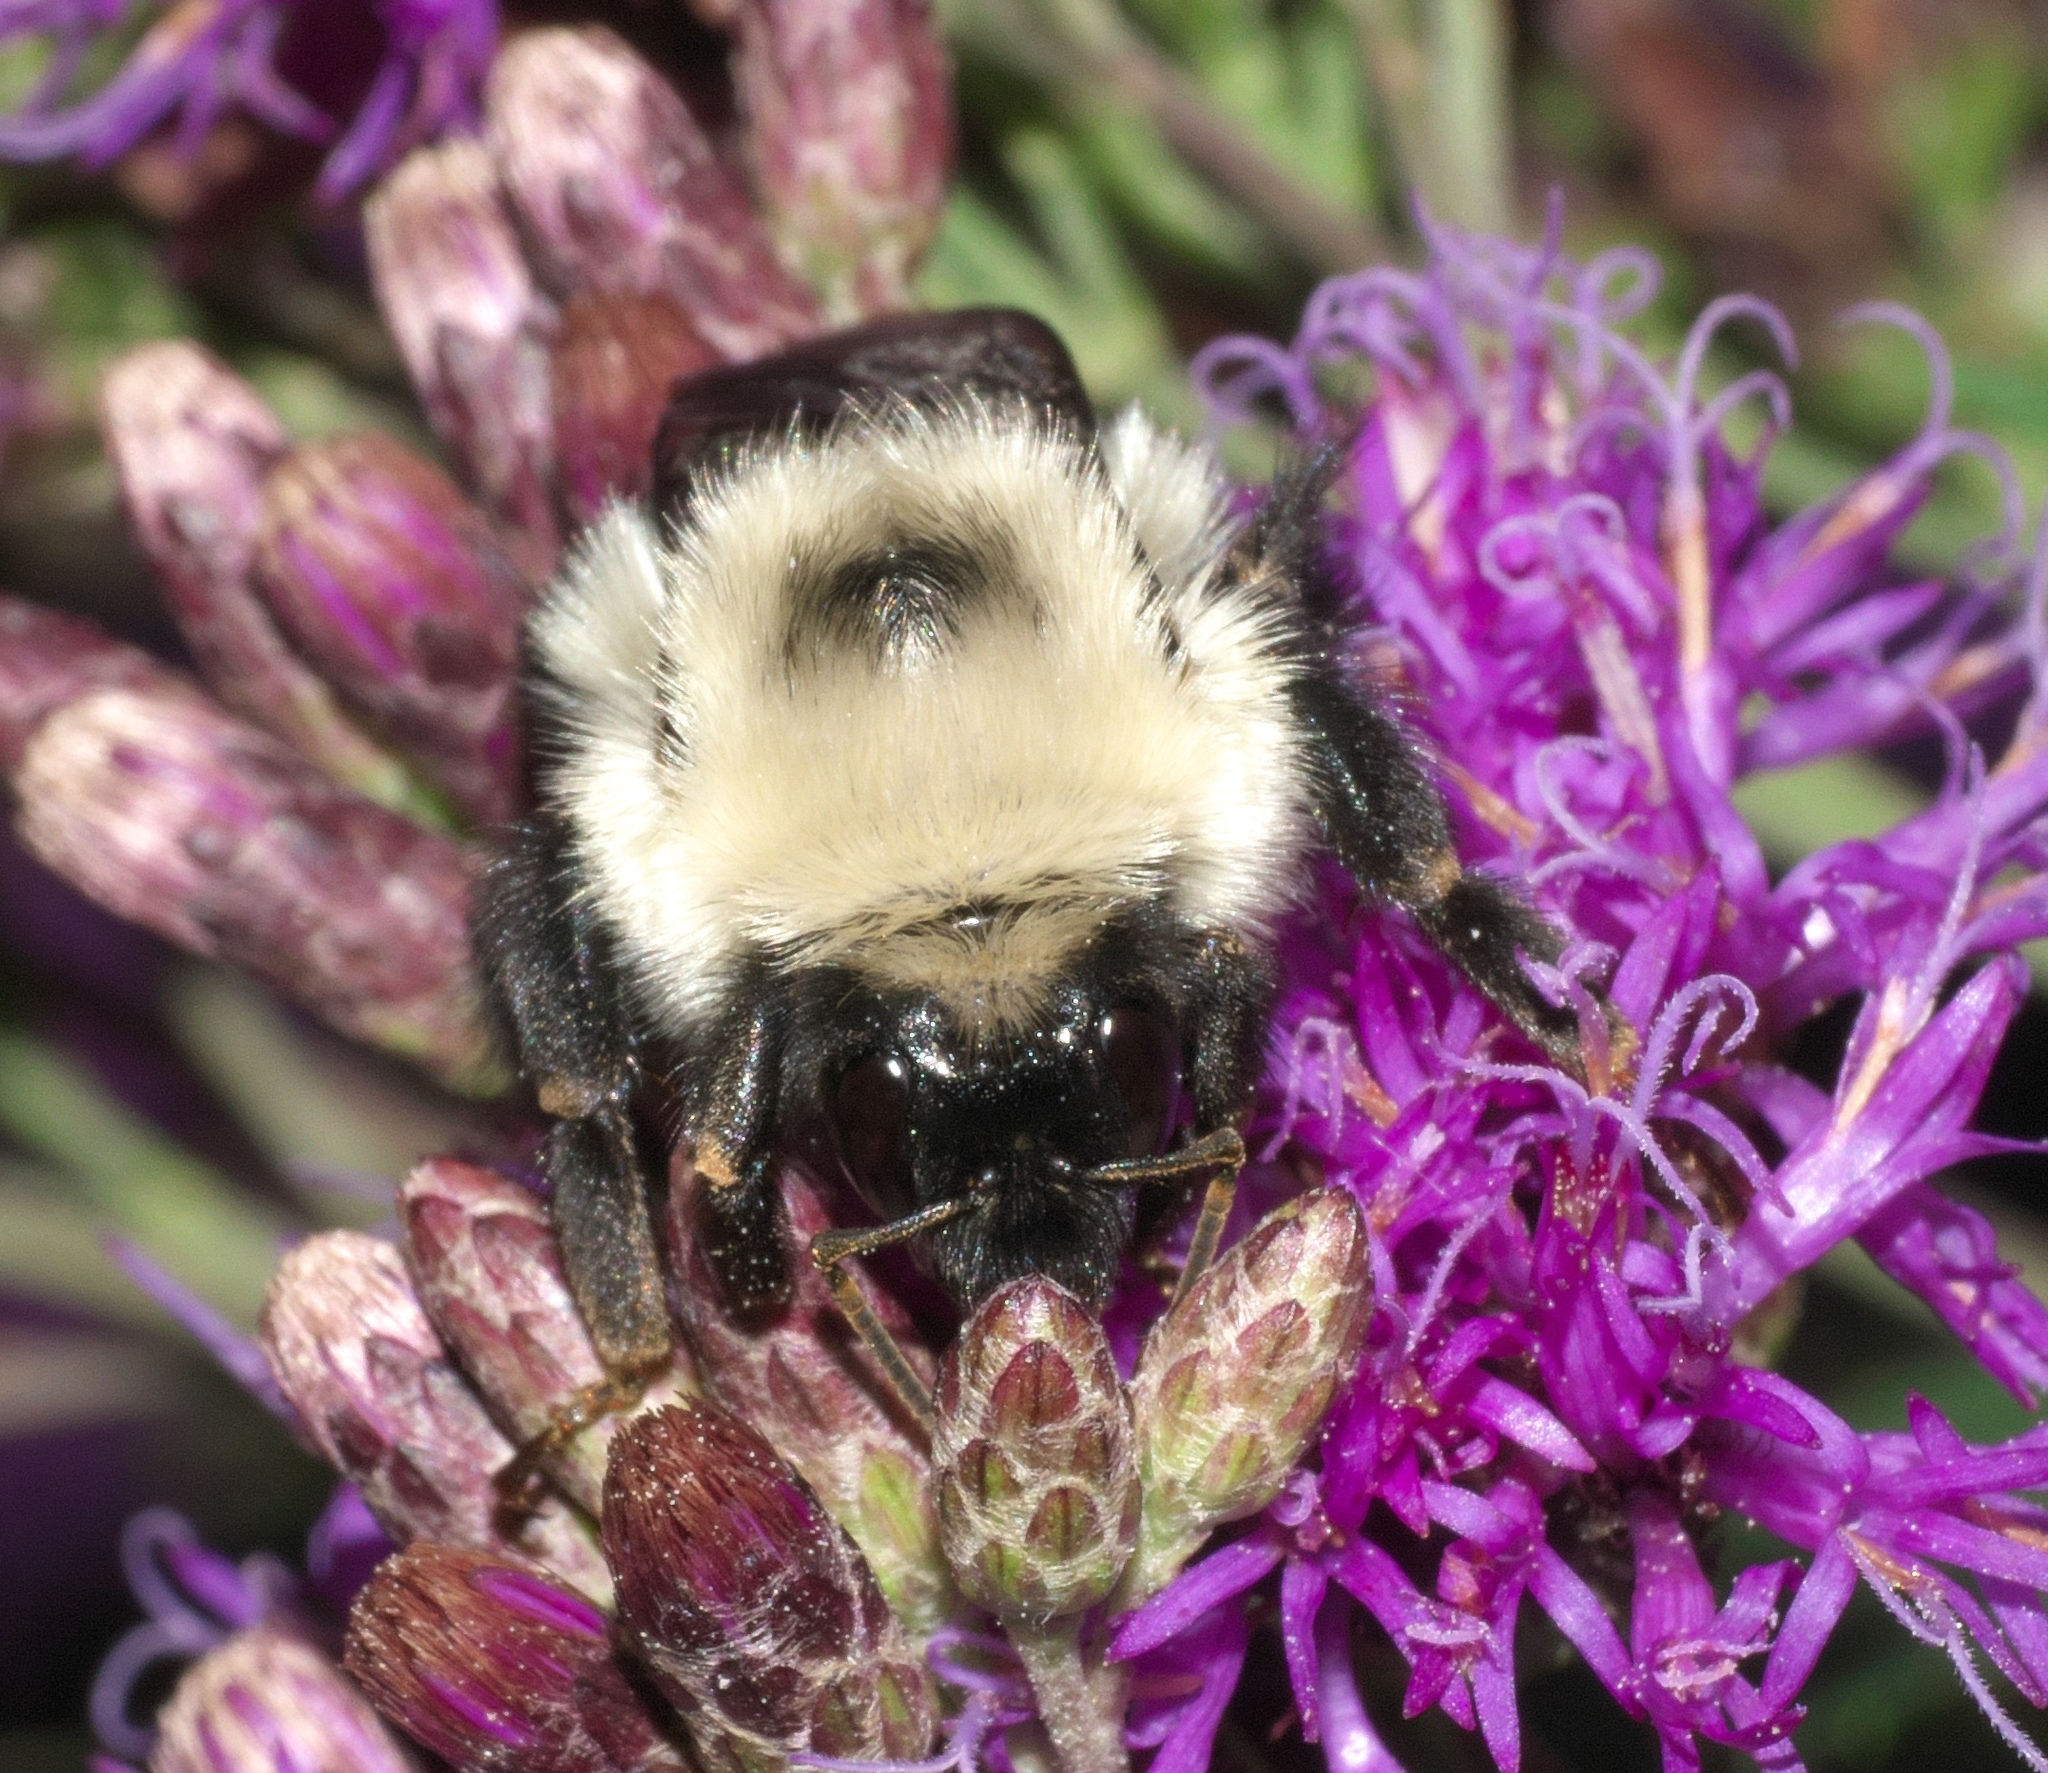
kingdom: Animalia
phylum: Arthropoda
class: Insecta
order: Hymenoptera
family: Apidae
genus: Bombus
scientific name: Bombus bimaculatus
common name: Two-spotted bumble bee
